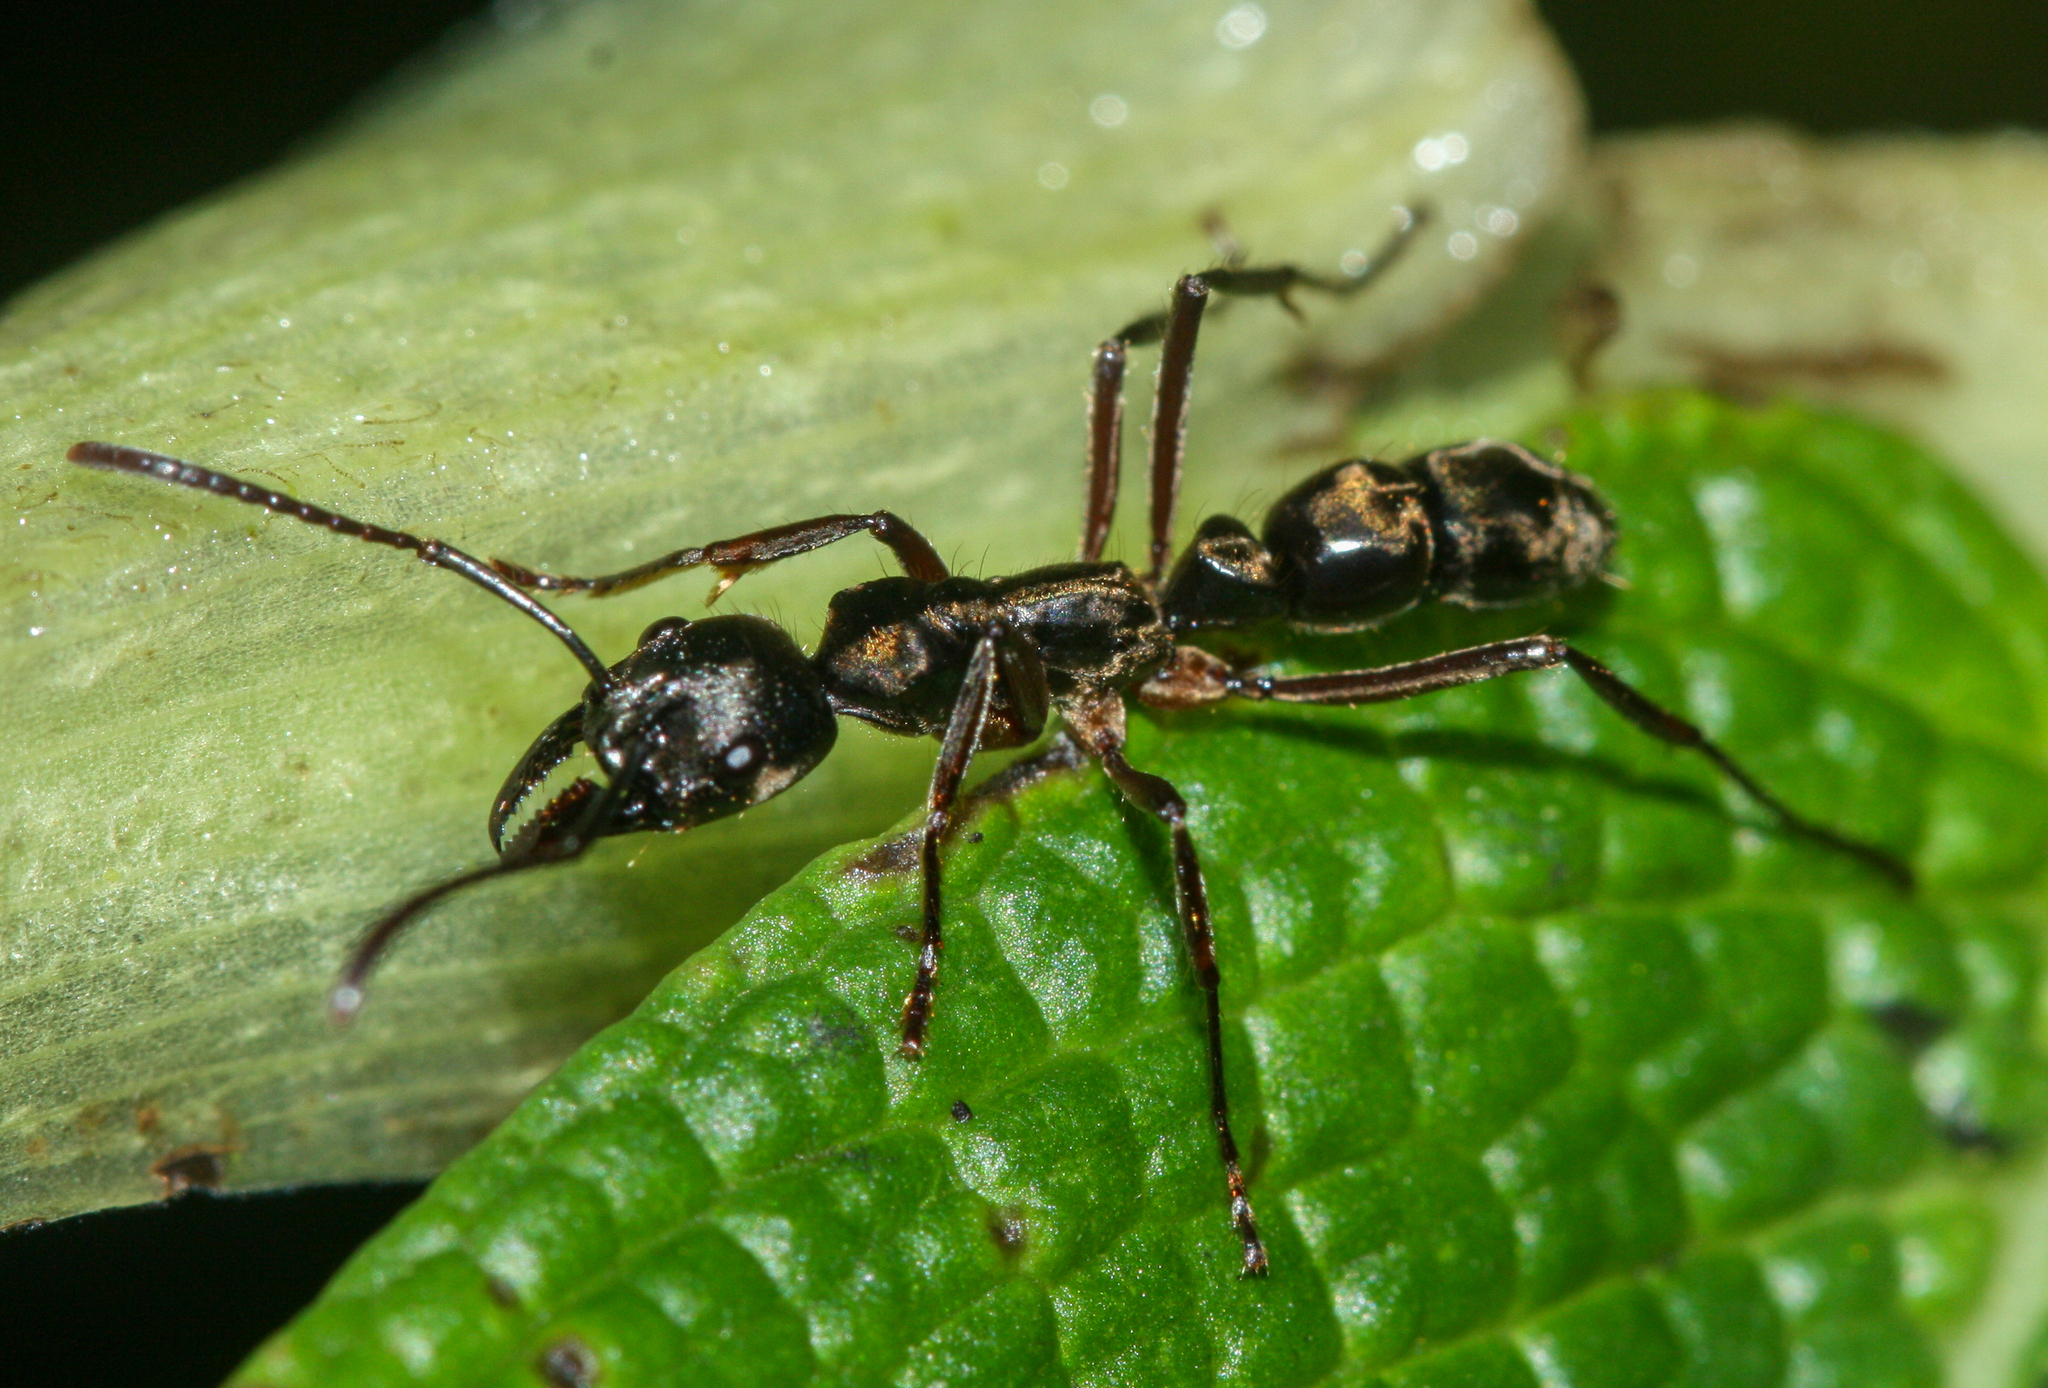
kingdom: Animalia
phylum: Arthropoda
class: Insecta
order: Hymenoptera
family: Formicidae
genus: Neoponera
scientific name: Neoponera
